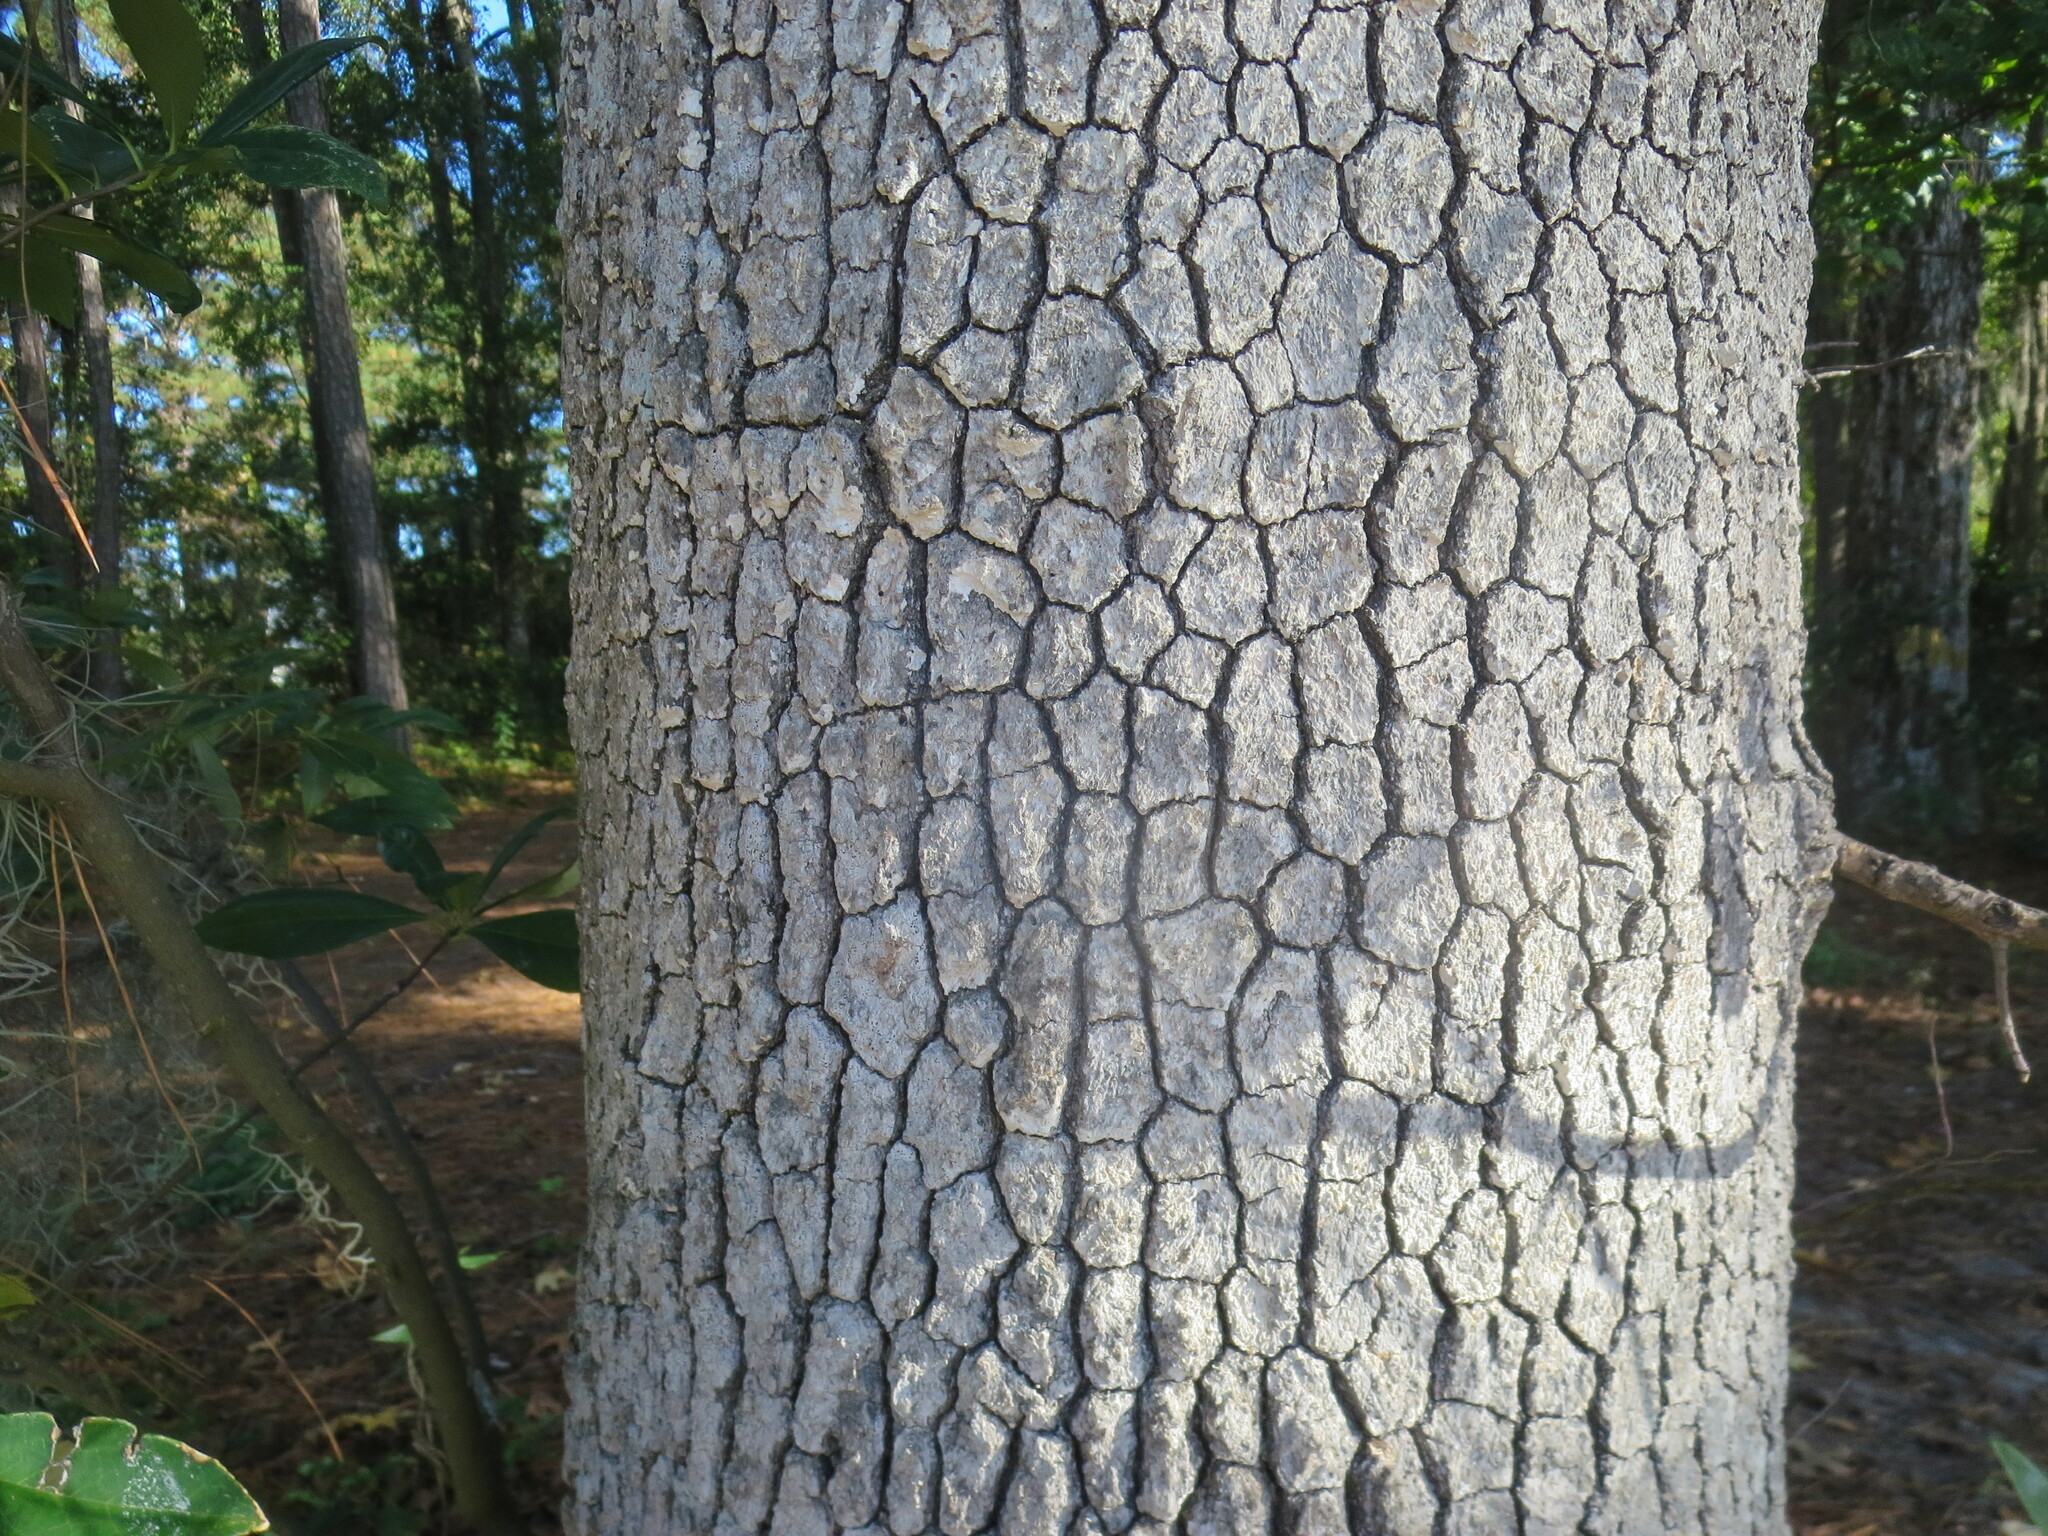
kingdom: Plantae
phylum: Tracheophyta
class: Magnoliopsida
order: Cornales
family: Nyssaceae
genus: Nyssa
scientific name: Nyssa sylvatica
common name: Black tupelo
